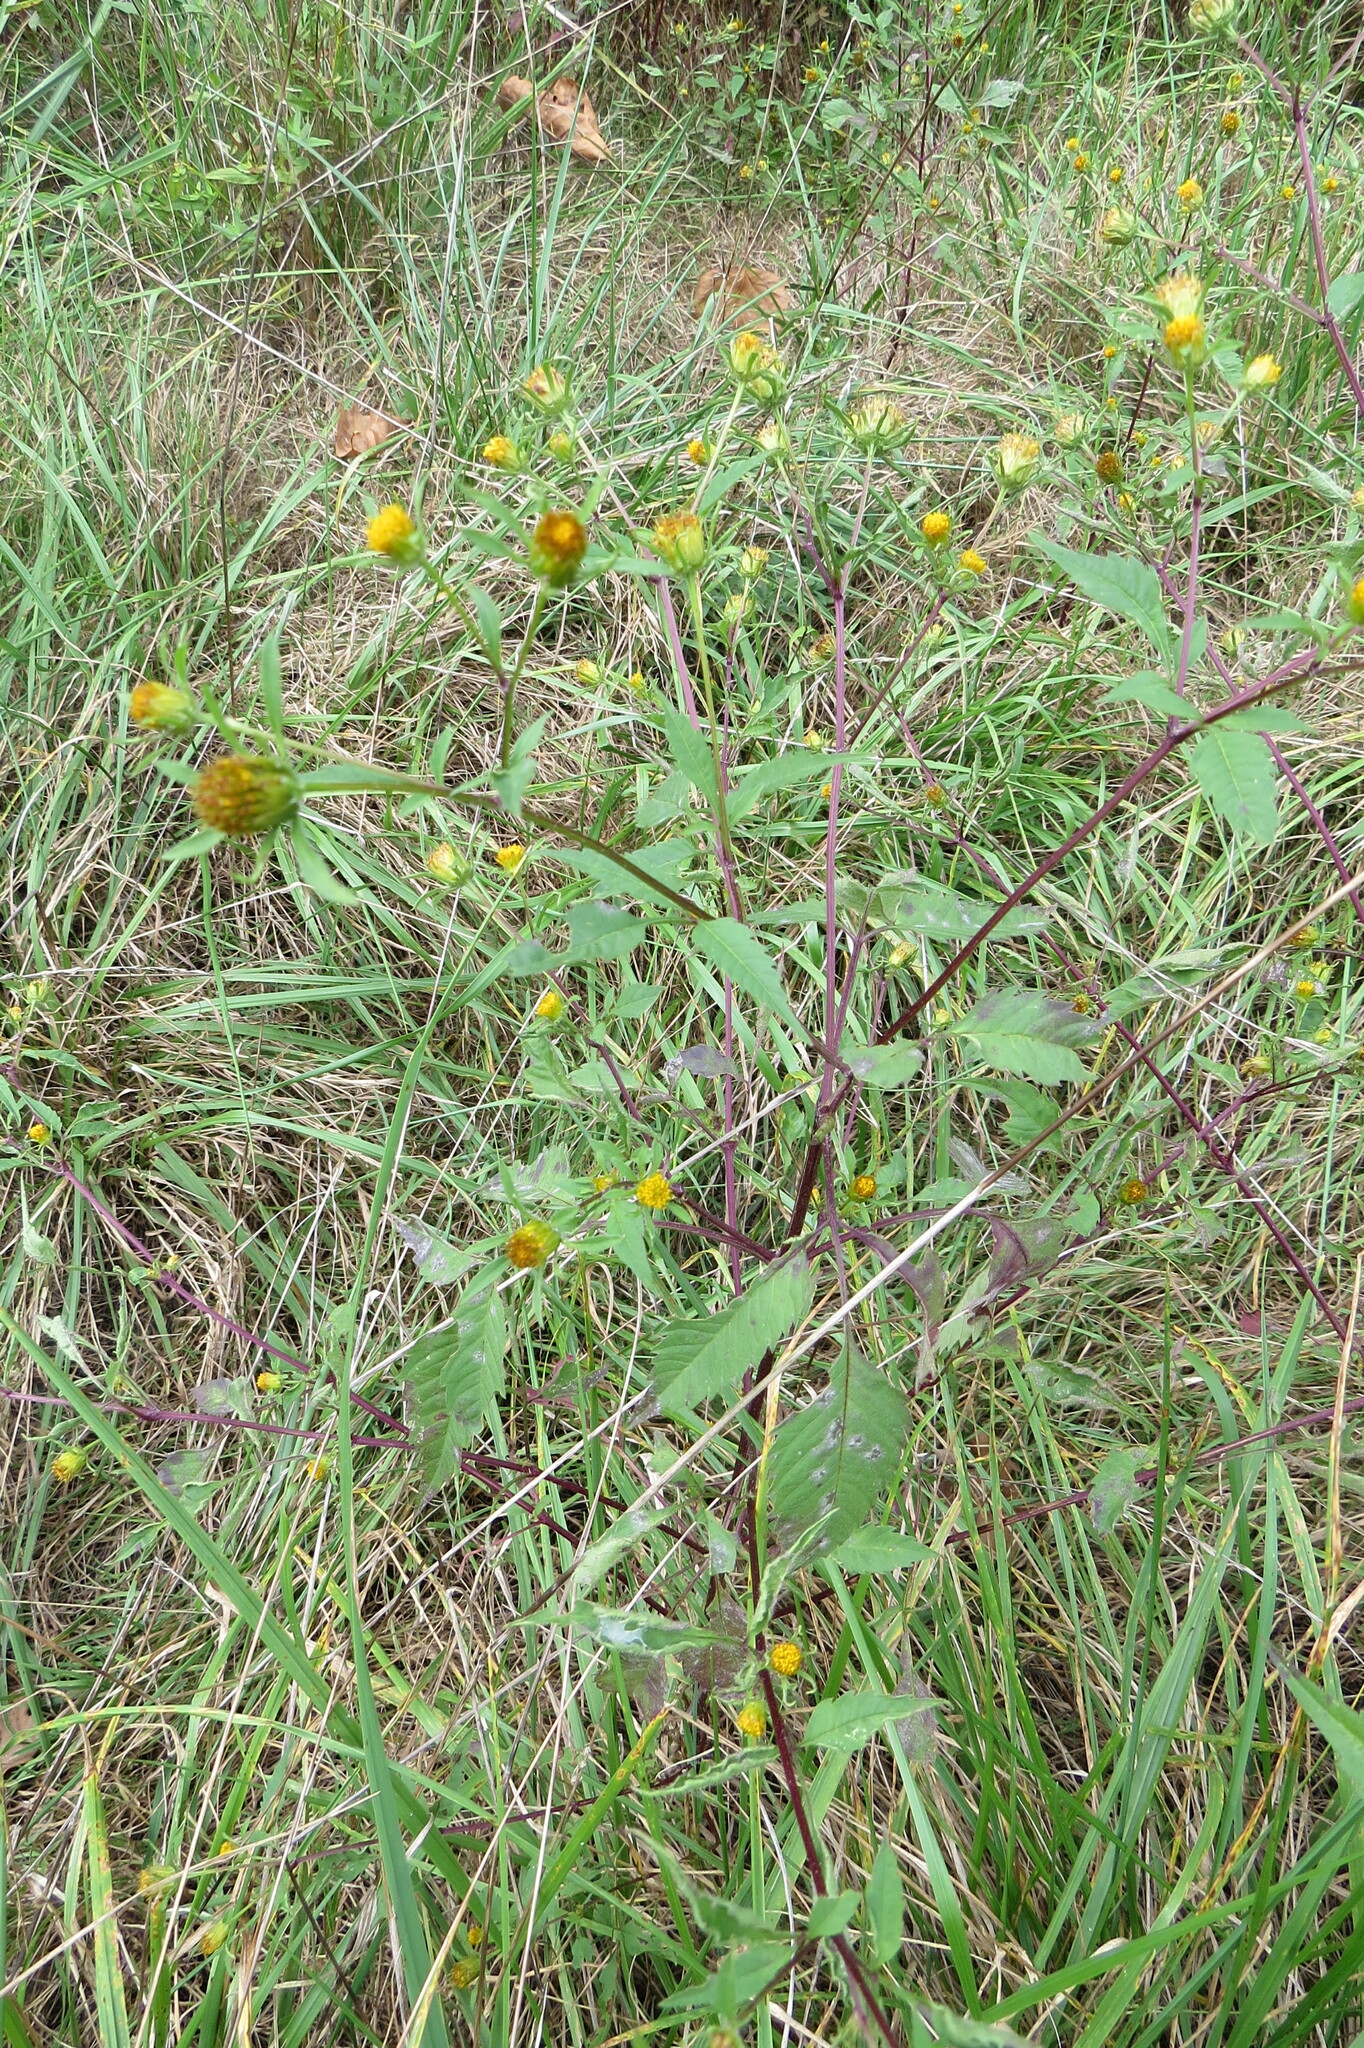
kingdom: Plantae
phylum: Tracheophyta
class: Magnoliopsida
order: Asterales
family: Asteraceae
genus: Bidens
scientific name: Bidens vulgata
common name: Tall beggarticks
